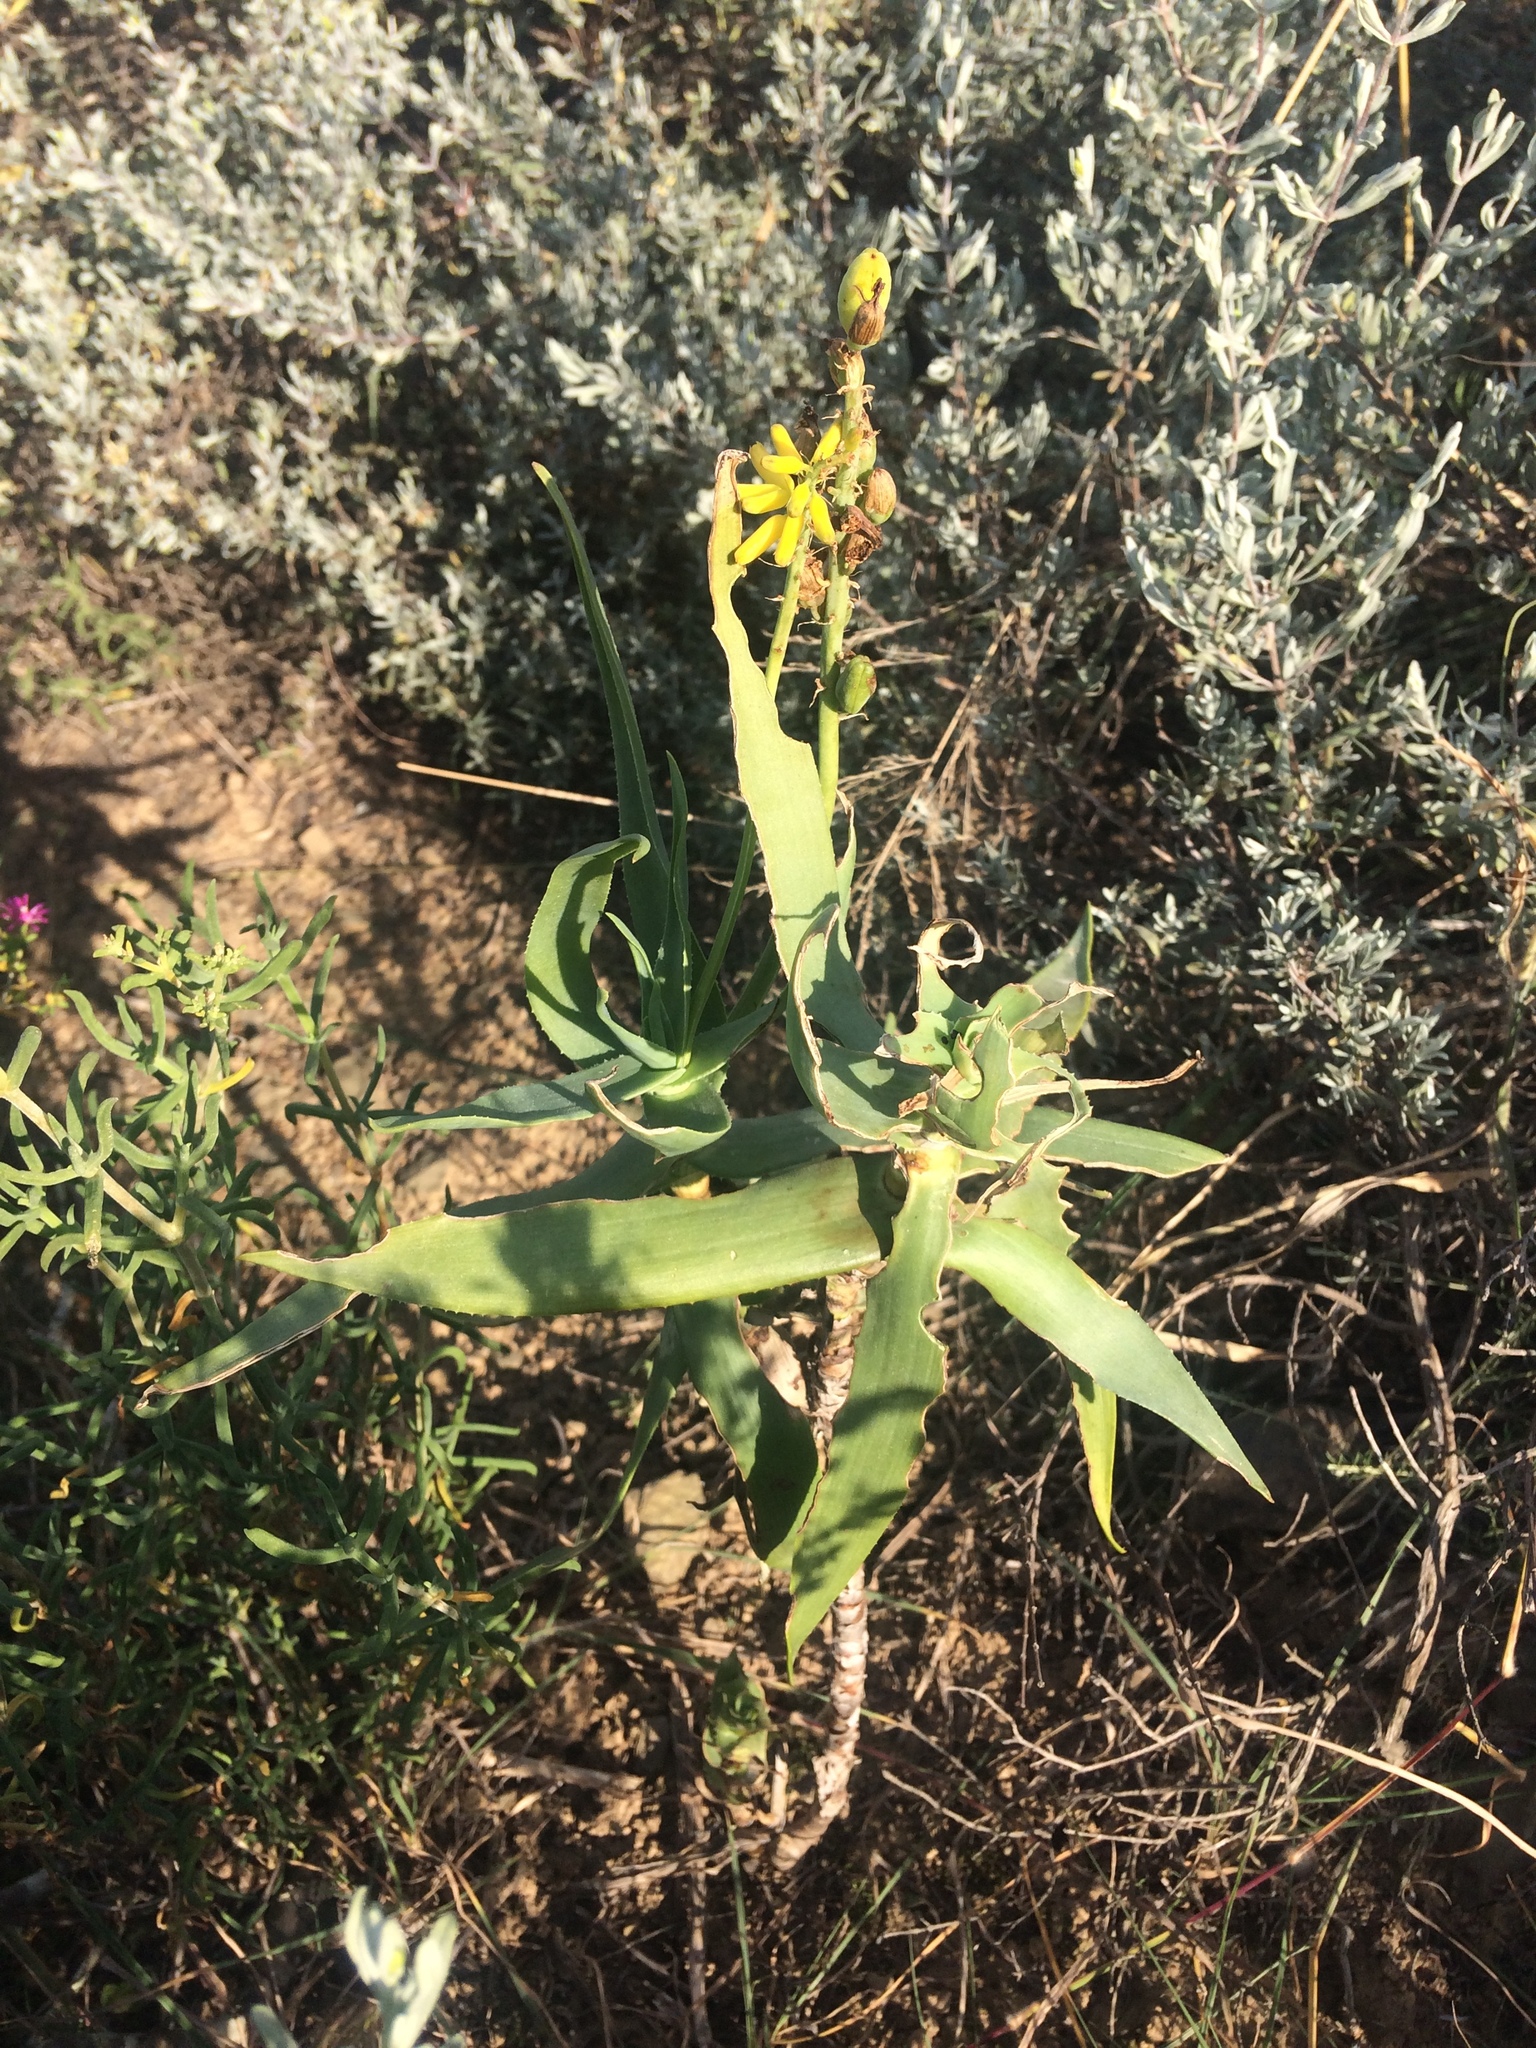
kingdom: Plantae
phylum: Tracheophyta
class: Liliopsida
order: Asparagales
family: Asphodelaceae
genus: Aloiampelos
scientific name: Aloiampelos tenuior
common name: Fence aloe
